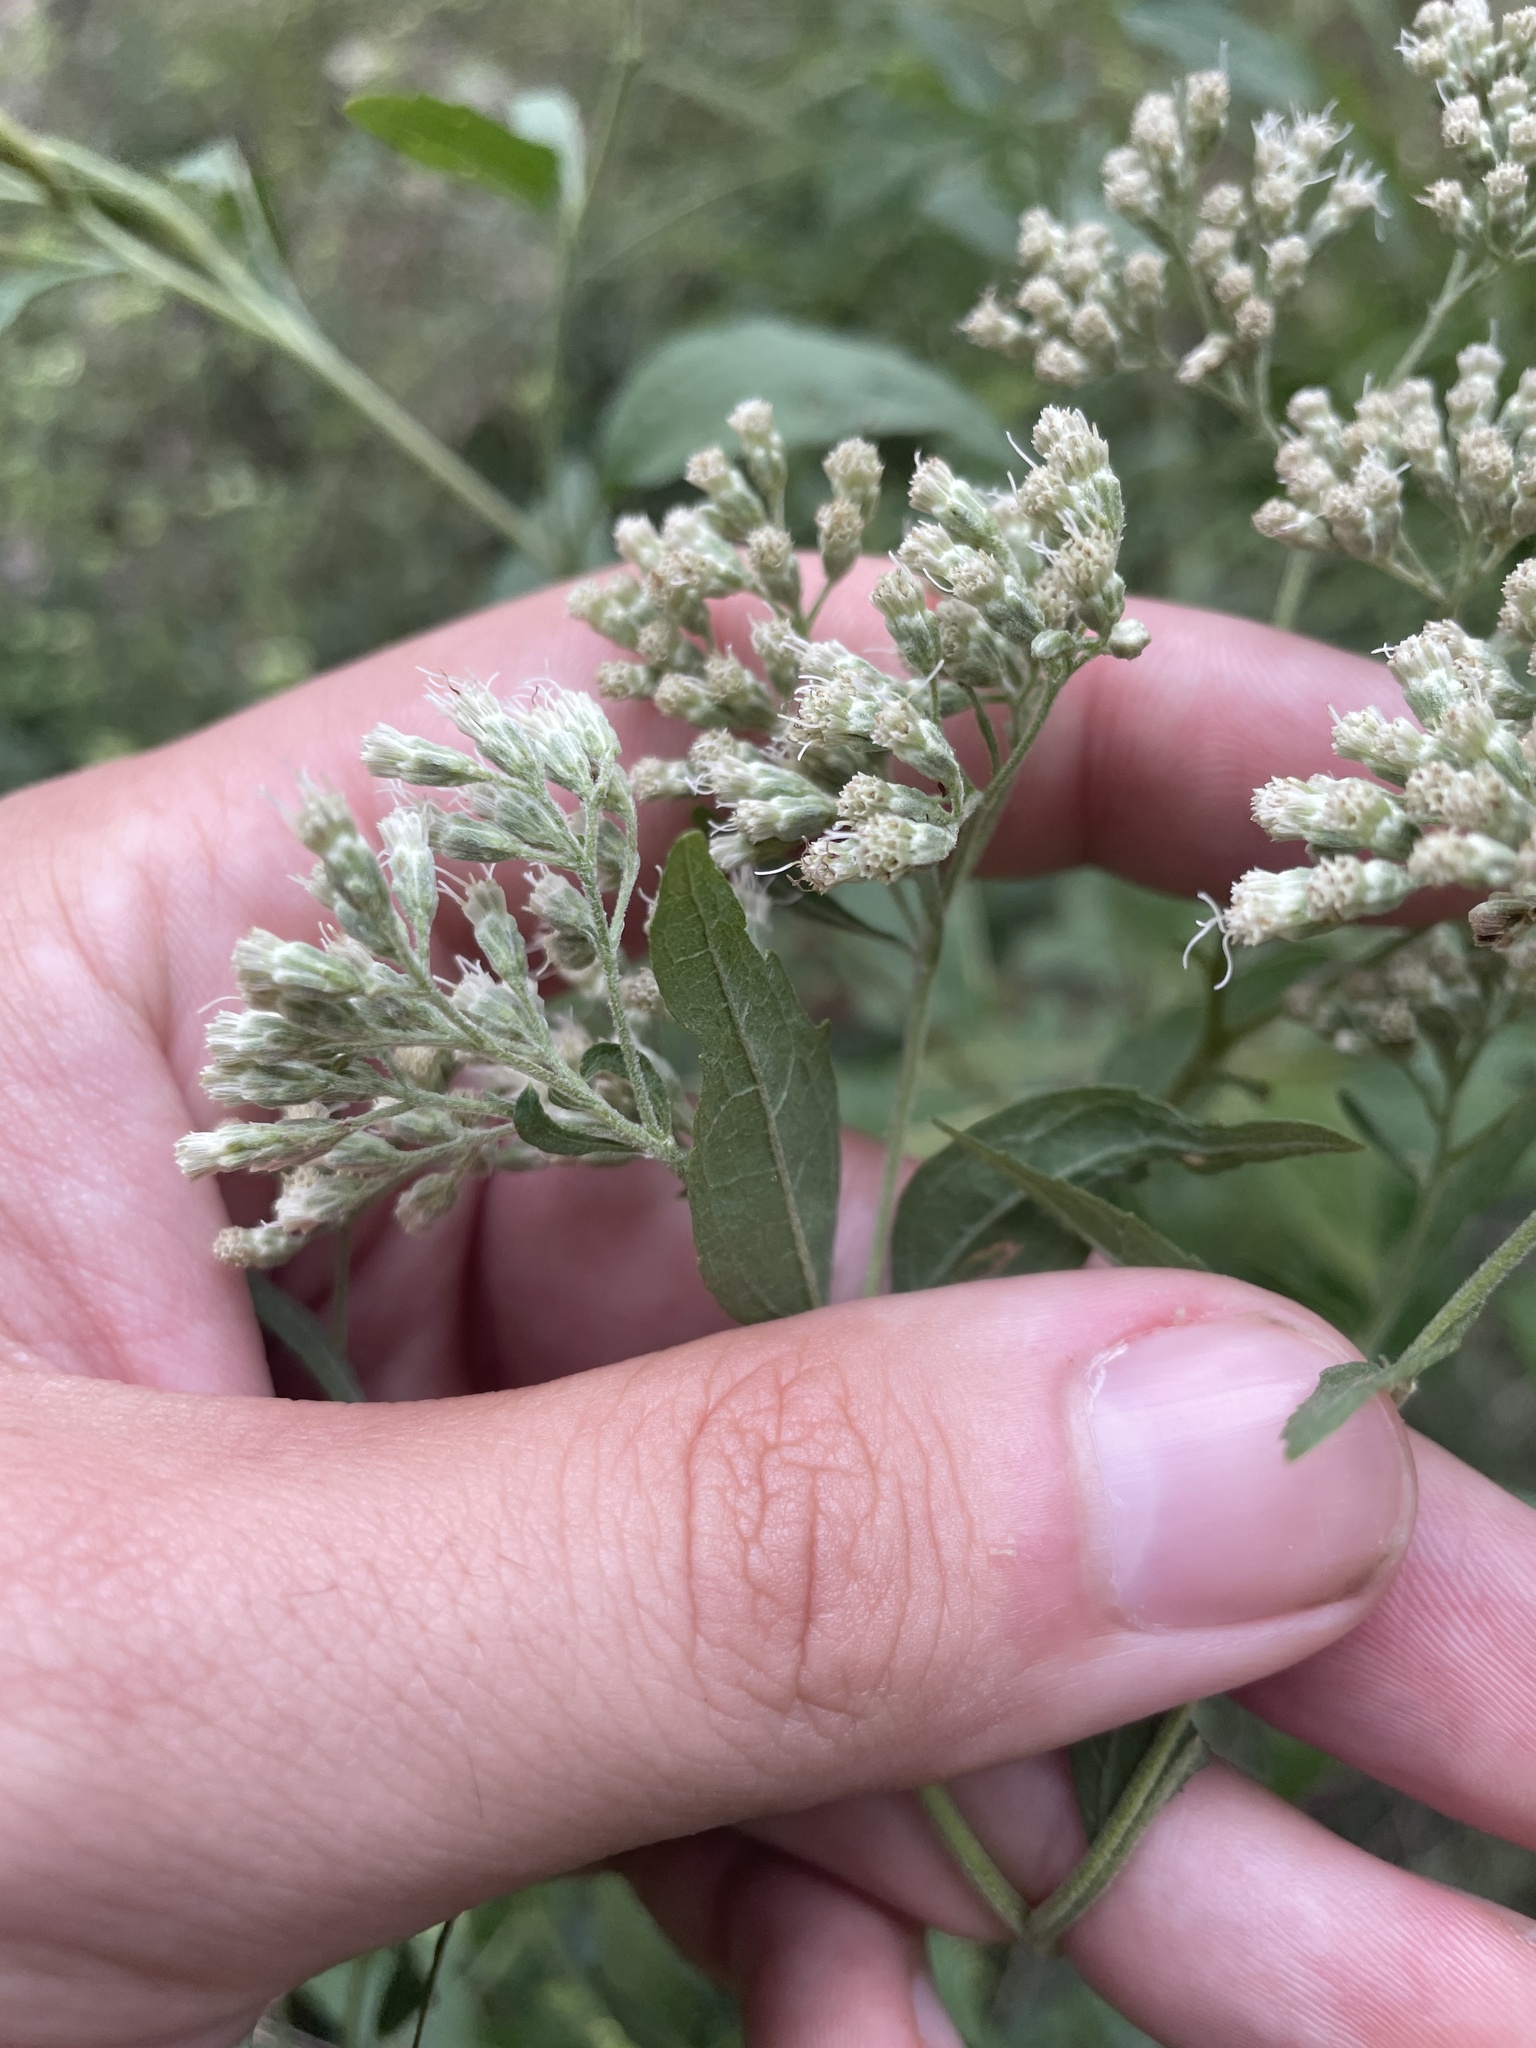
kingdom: Plantae
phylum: Tracheophyta
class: Magnoliopsida
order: Asterales
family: Asteraceae
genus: Eupatorium
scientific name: Eupatorium serotinum
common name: Late boneset
